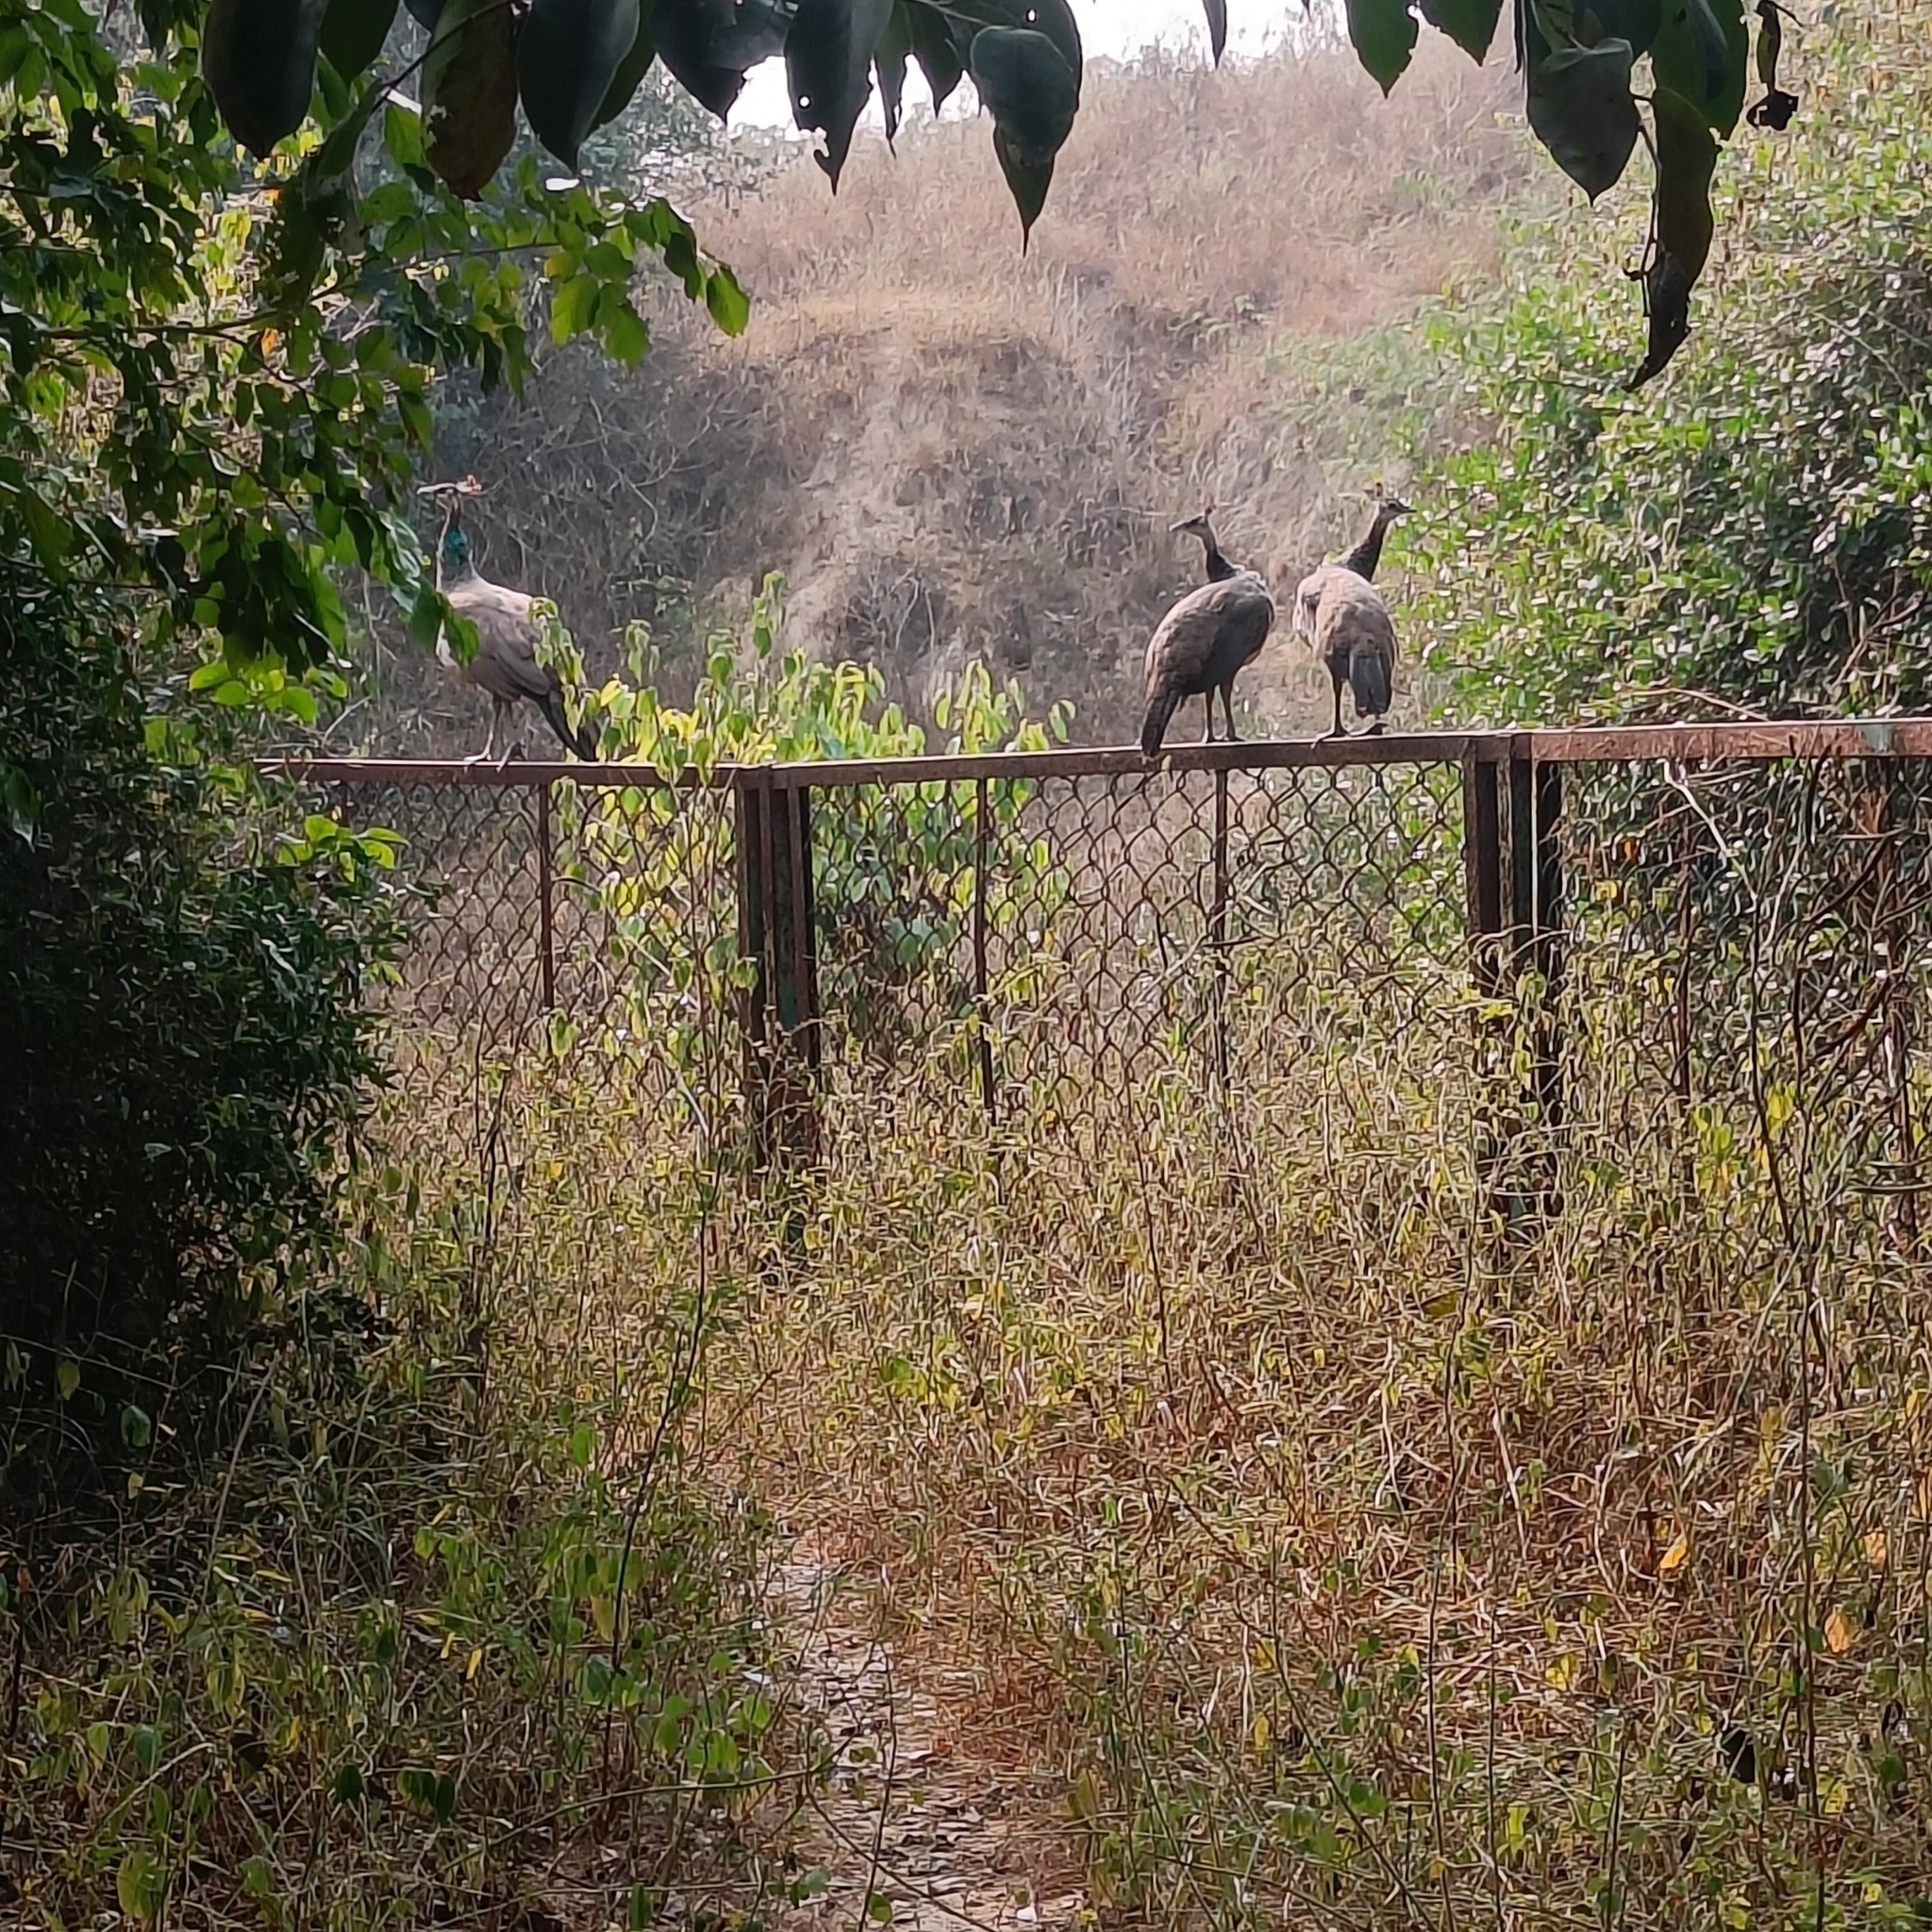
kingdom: Animalia
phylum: Chordata
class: Aves
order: Galliformes
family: Phasianidae
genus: Pavo
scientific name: Pavo cristatus
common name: Indian peafowl
